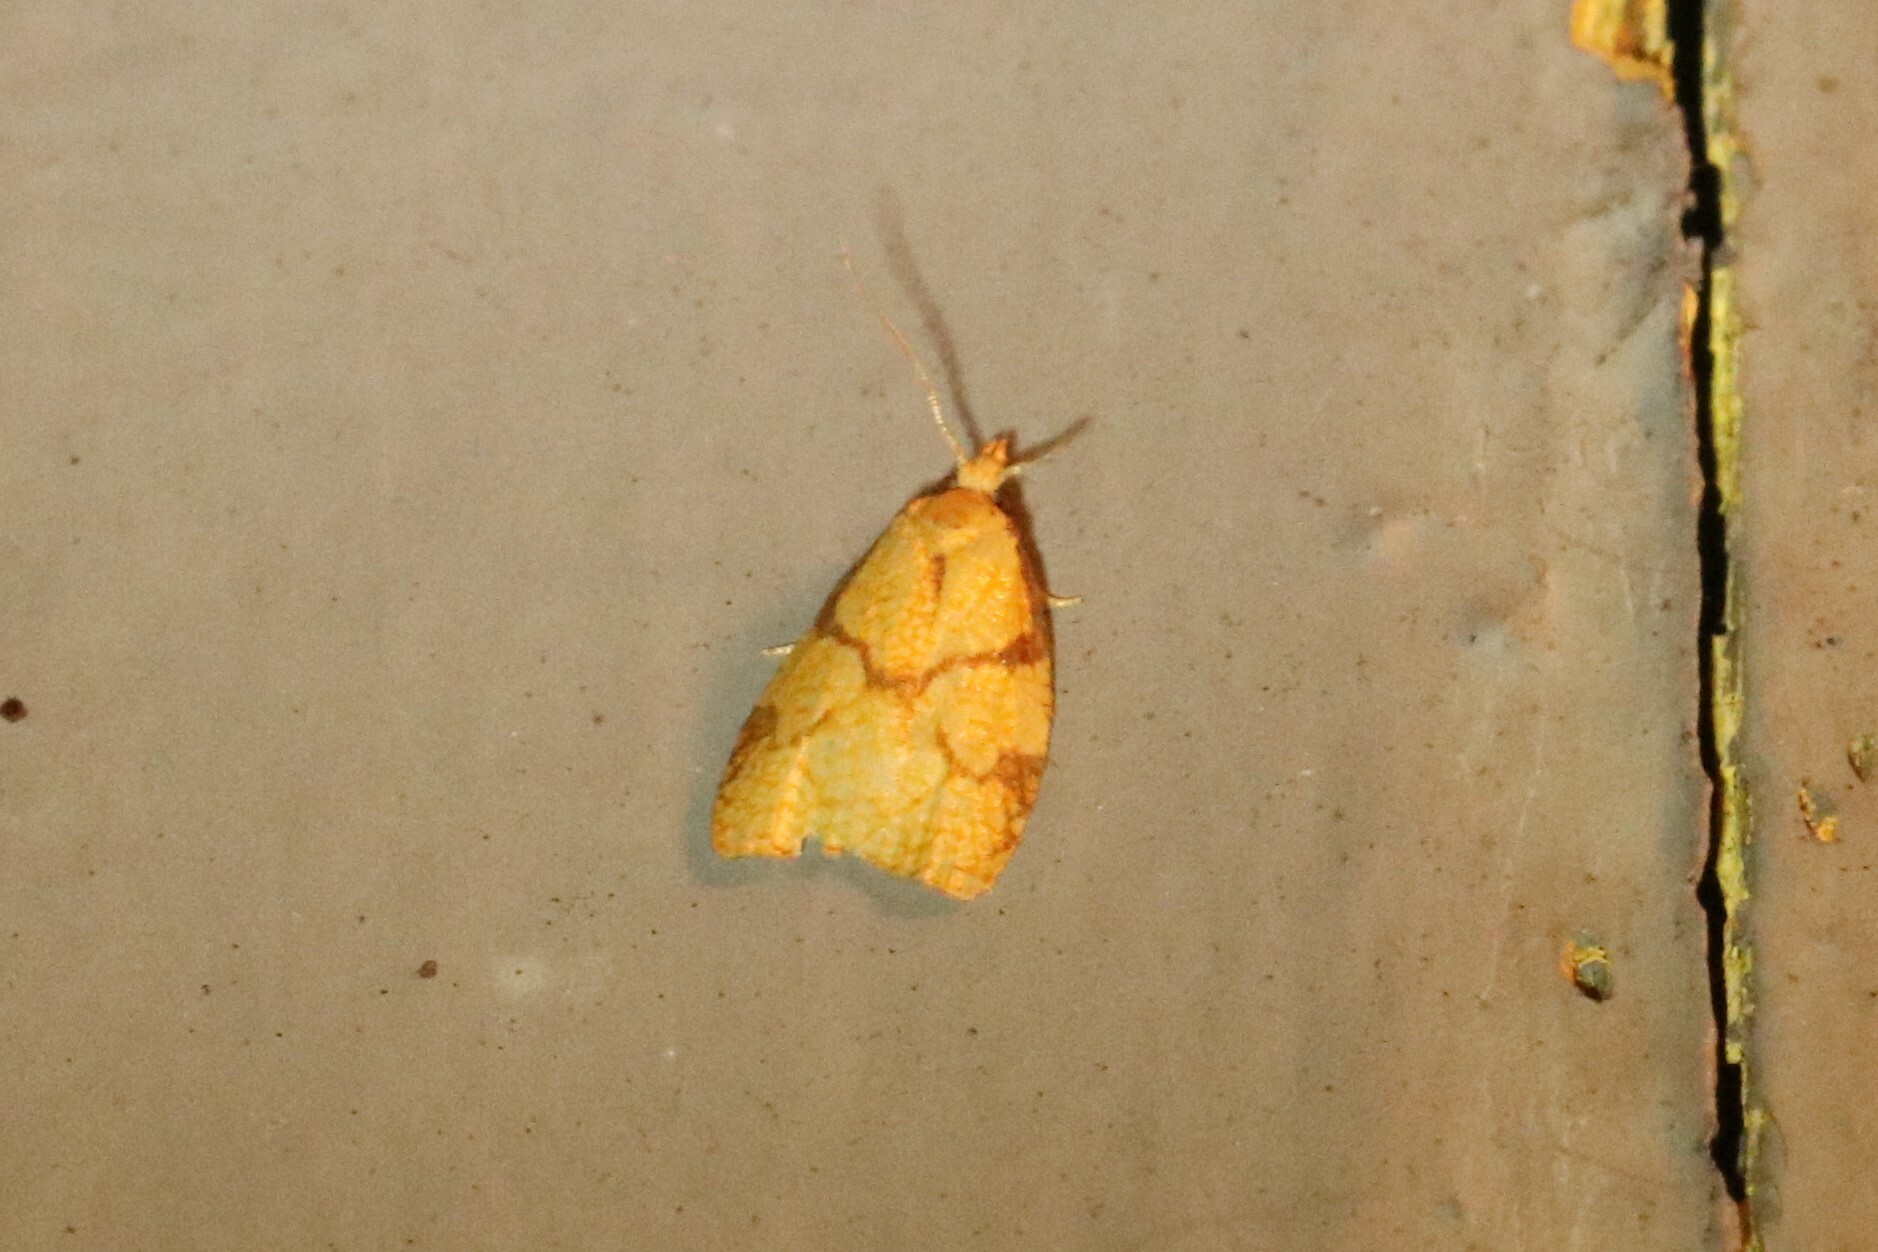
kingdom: Animalia
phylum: Arthropoda
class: Insecta
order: Lepidoptera
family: Tortricidae
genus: Cenopis
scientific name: Cenopis reticulatana
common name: Reticulated fruitworm moth
